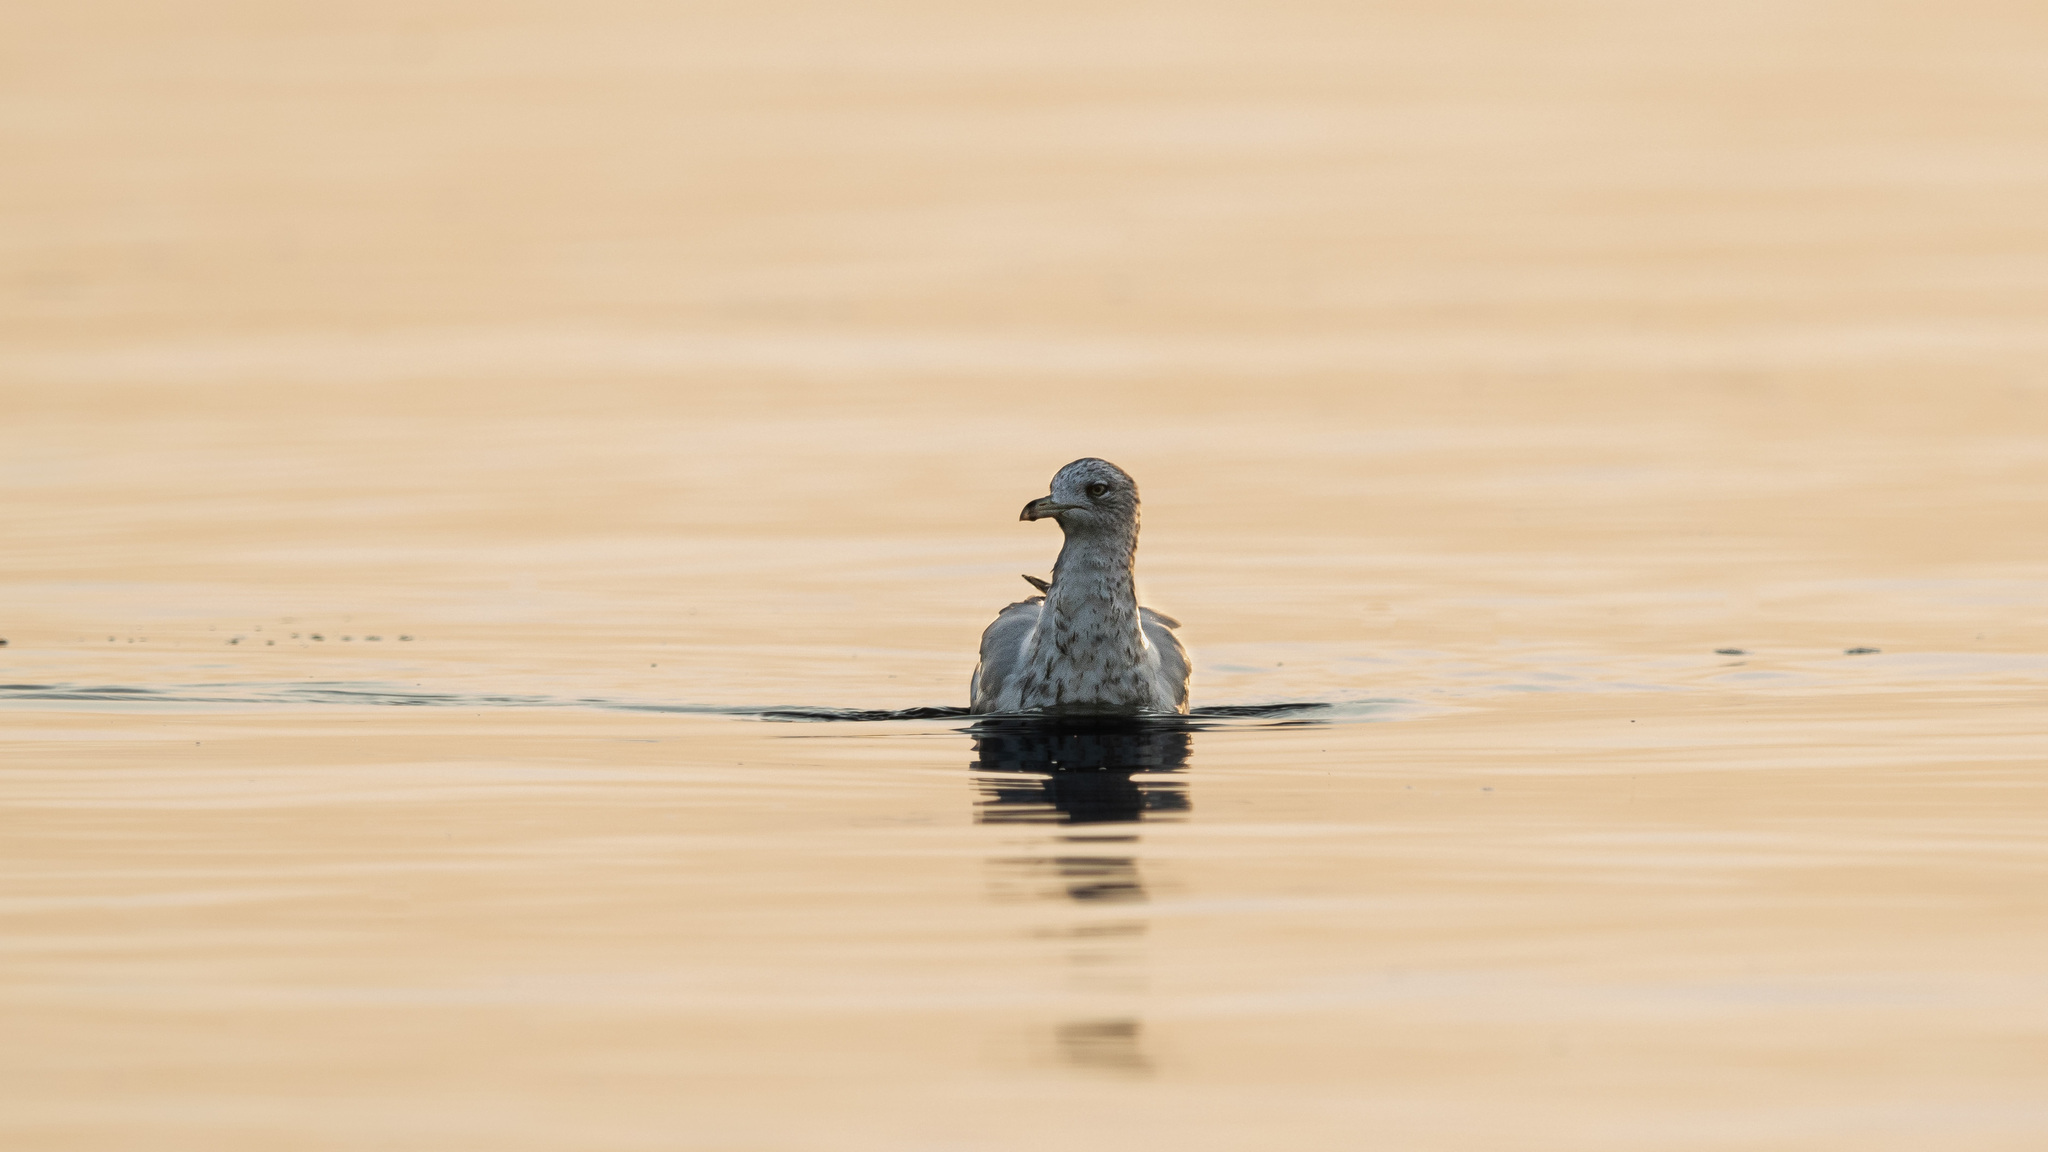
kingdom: Animalia
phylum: Chordata
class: Aves
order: Charadriiformes
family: Laridae
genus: Larus
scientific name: Larus delawarensis
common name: Ring-billed gull
